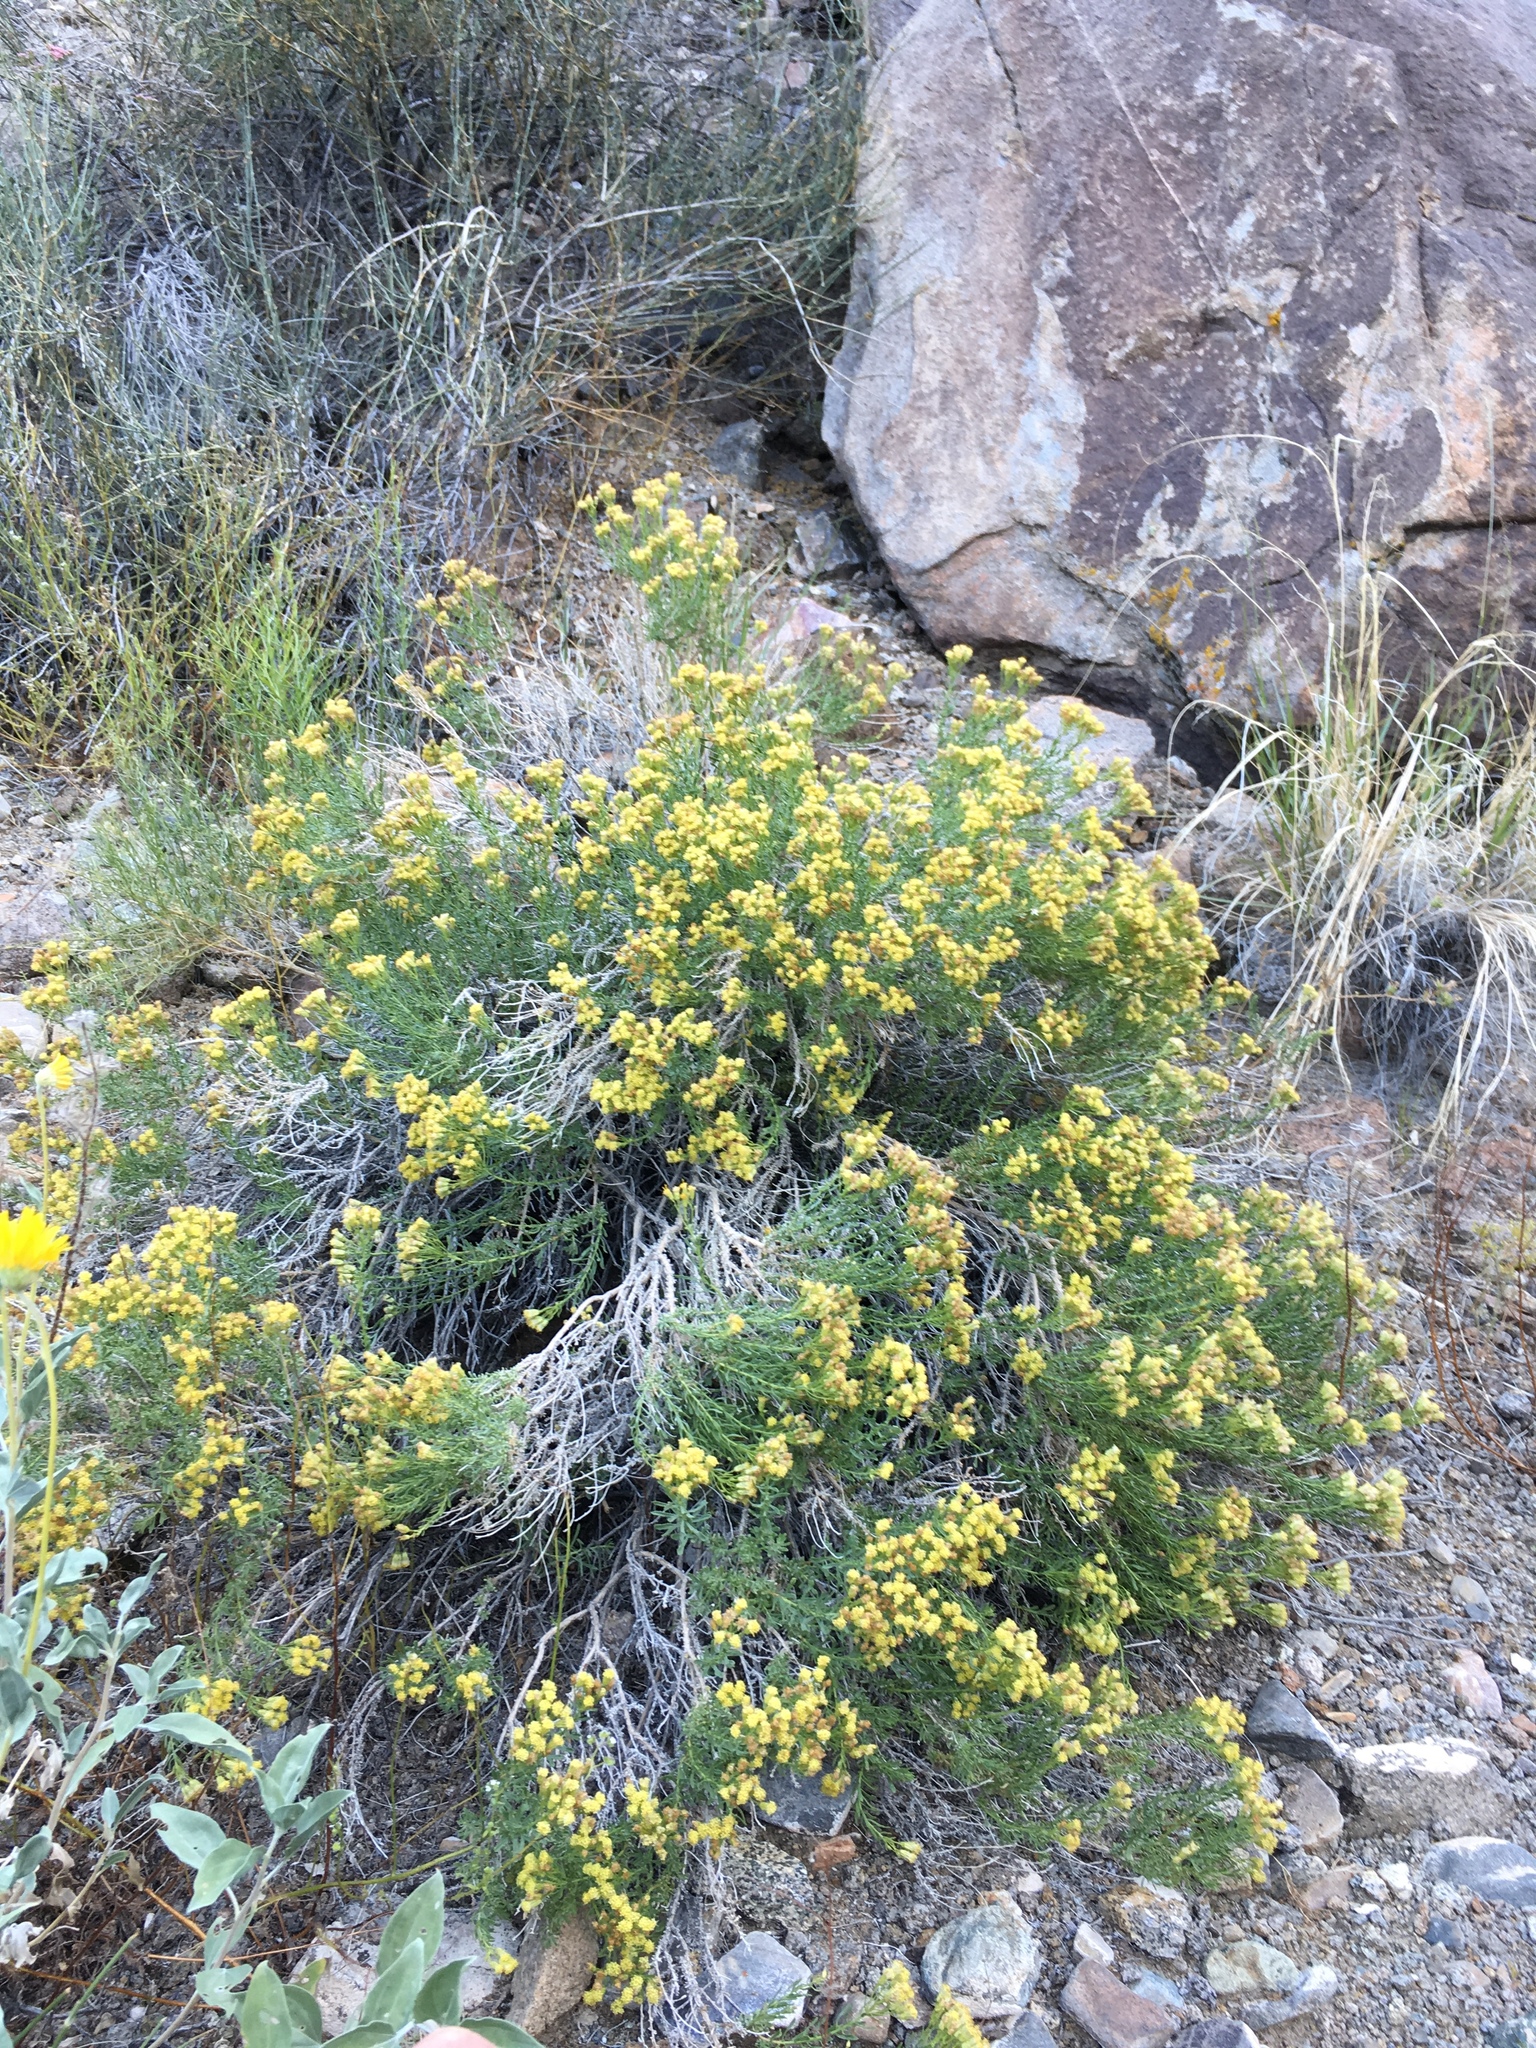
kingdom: Plantae
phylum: Tracheophyta
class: Magnoliopsida
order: Asterales
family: Asteraceae
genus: Ericameria
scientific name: Ericameria cooperi
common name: Cooper's goldenbush
